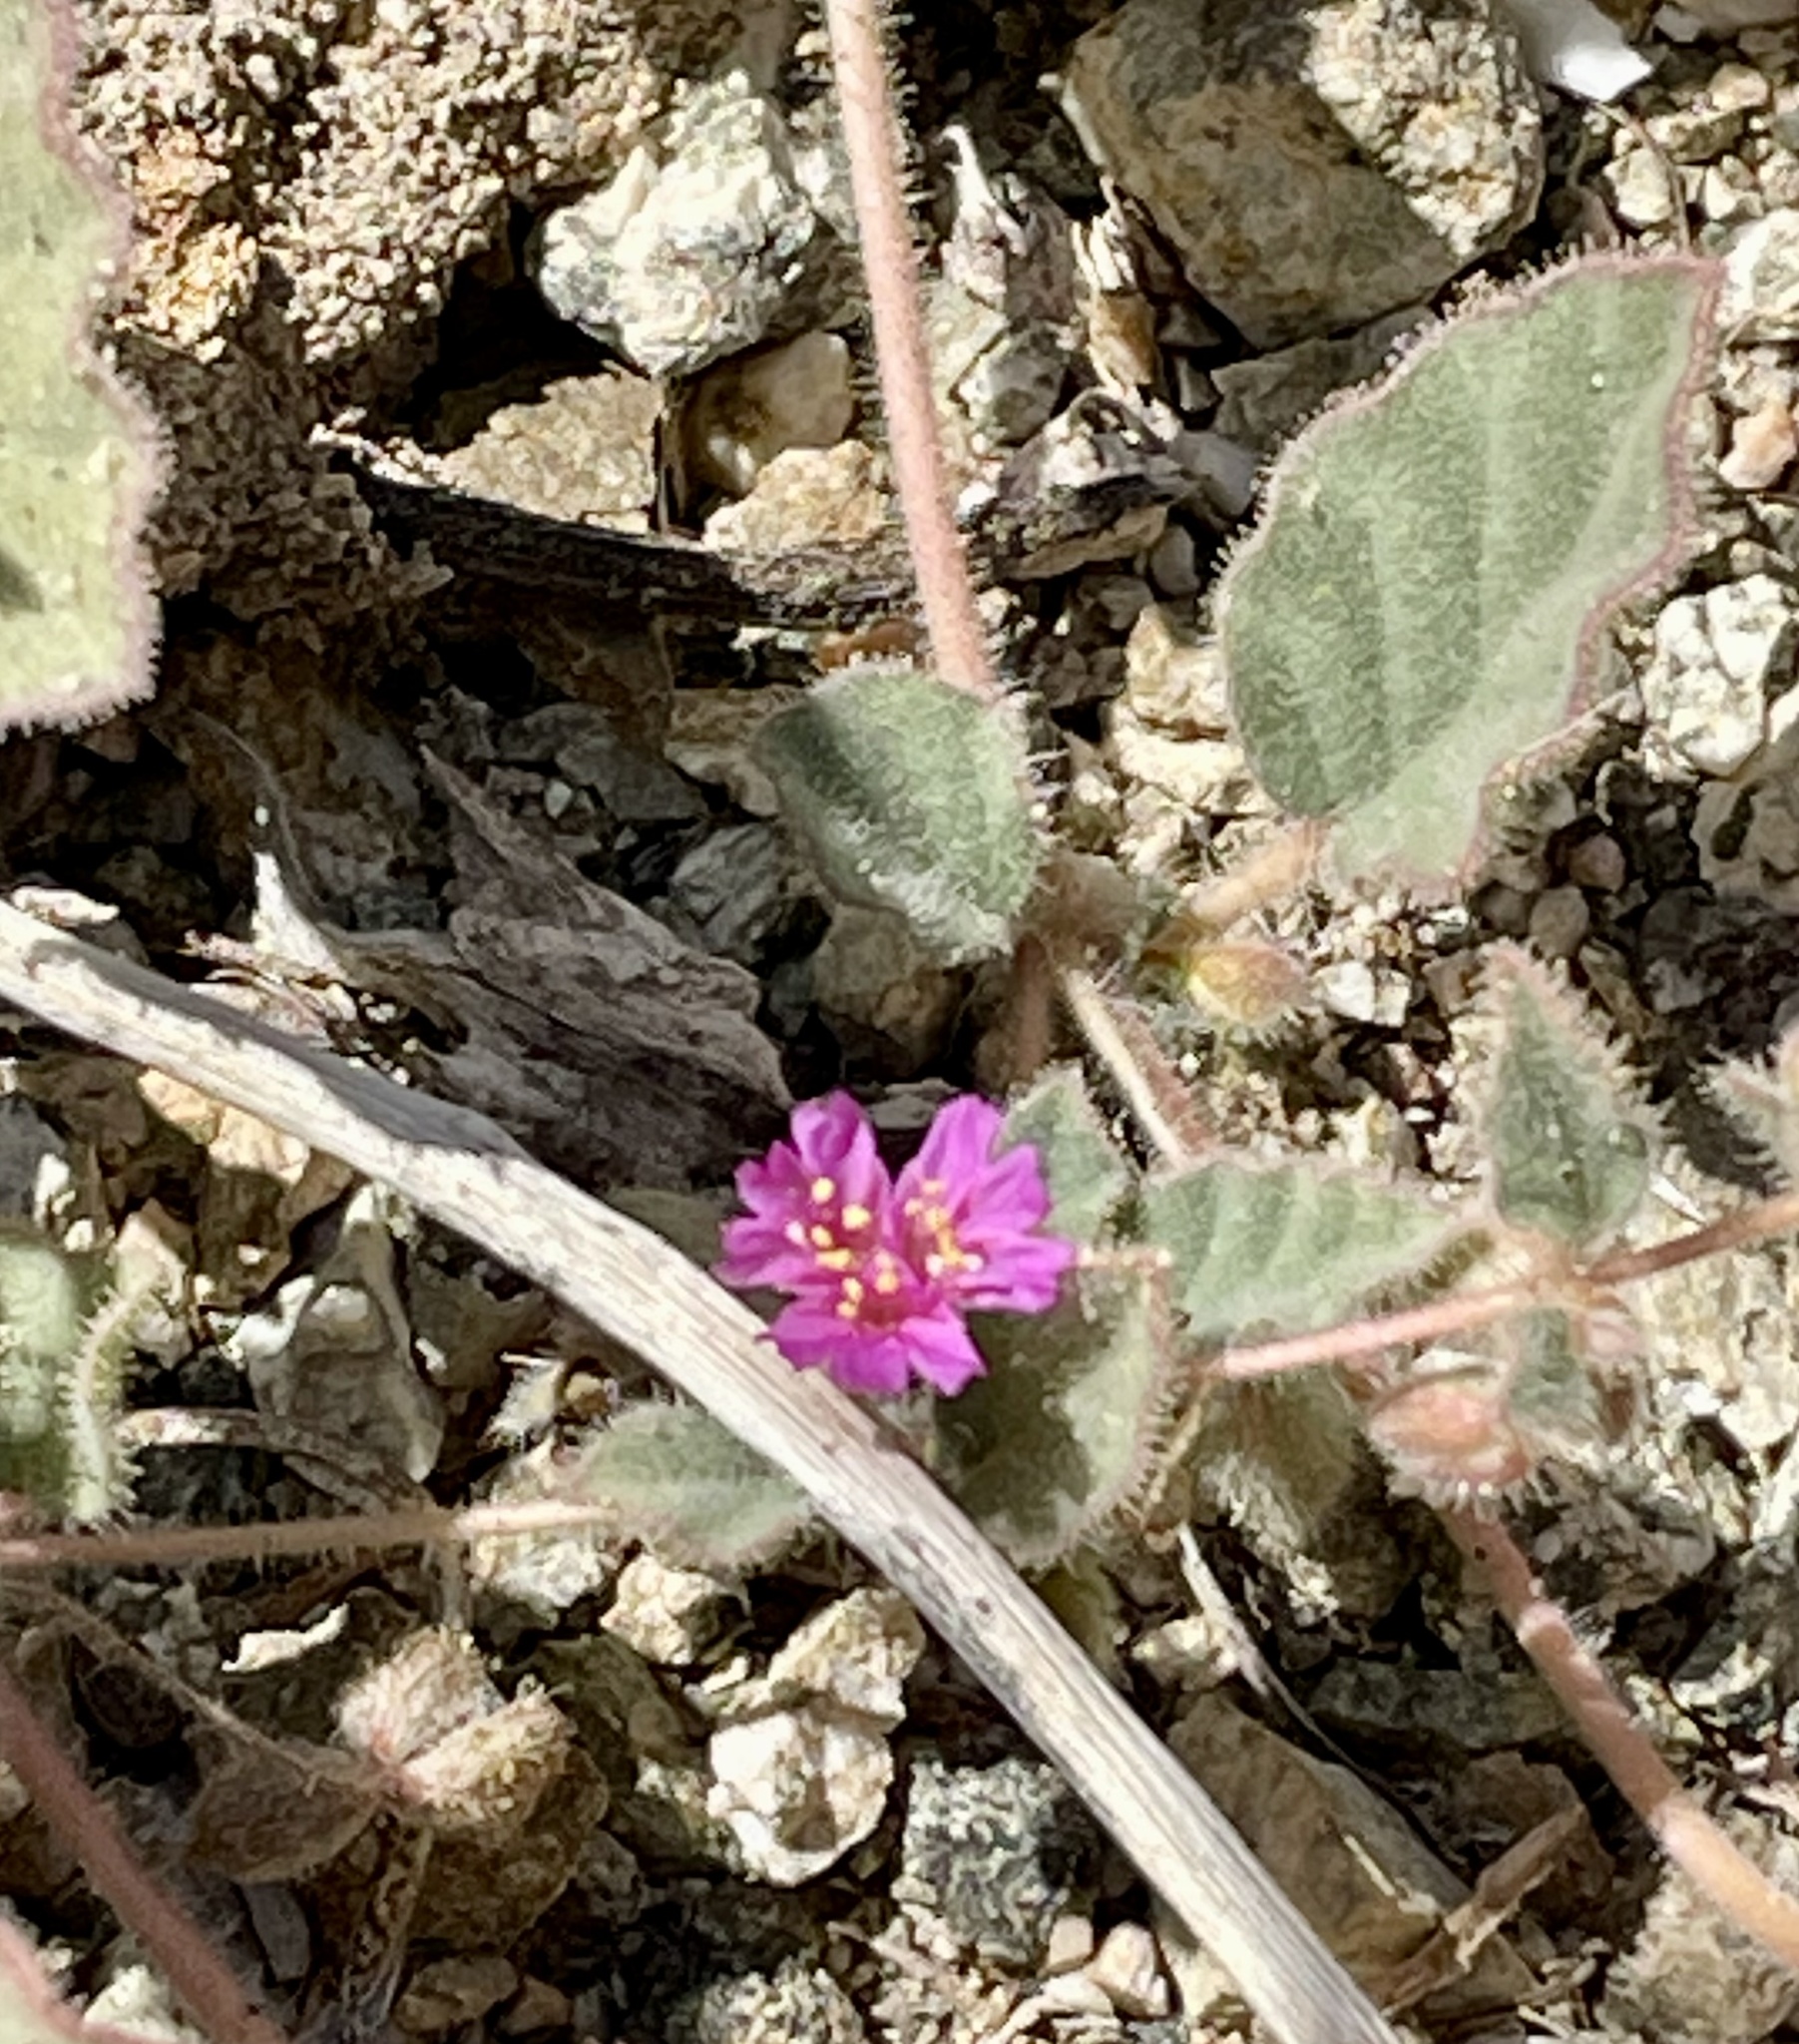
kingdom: Plantae
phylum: Tracheophyta
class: Magnoliopsida
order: Caryophyllales
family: Nyctaginaceae
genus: Allionia
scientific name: Allionia incarnata
